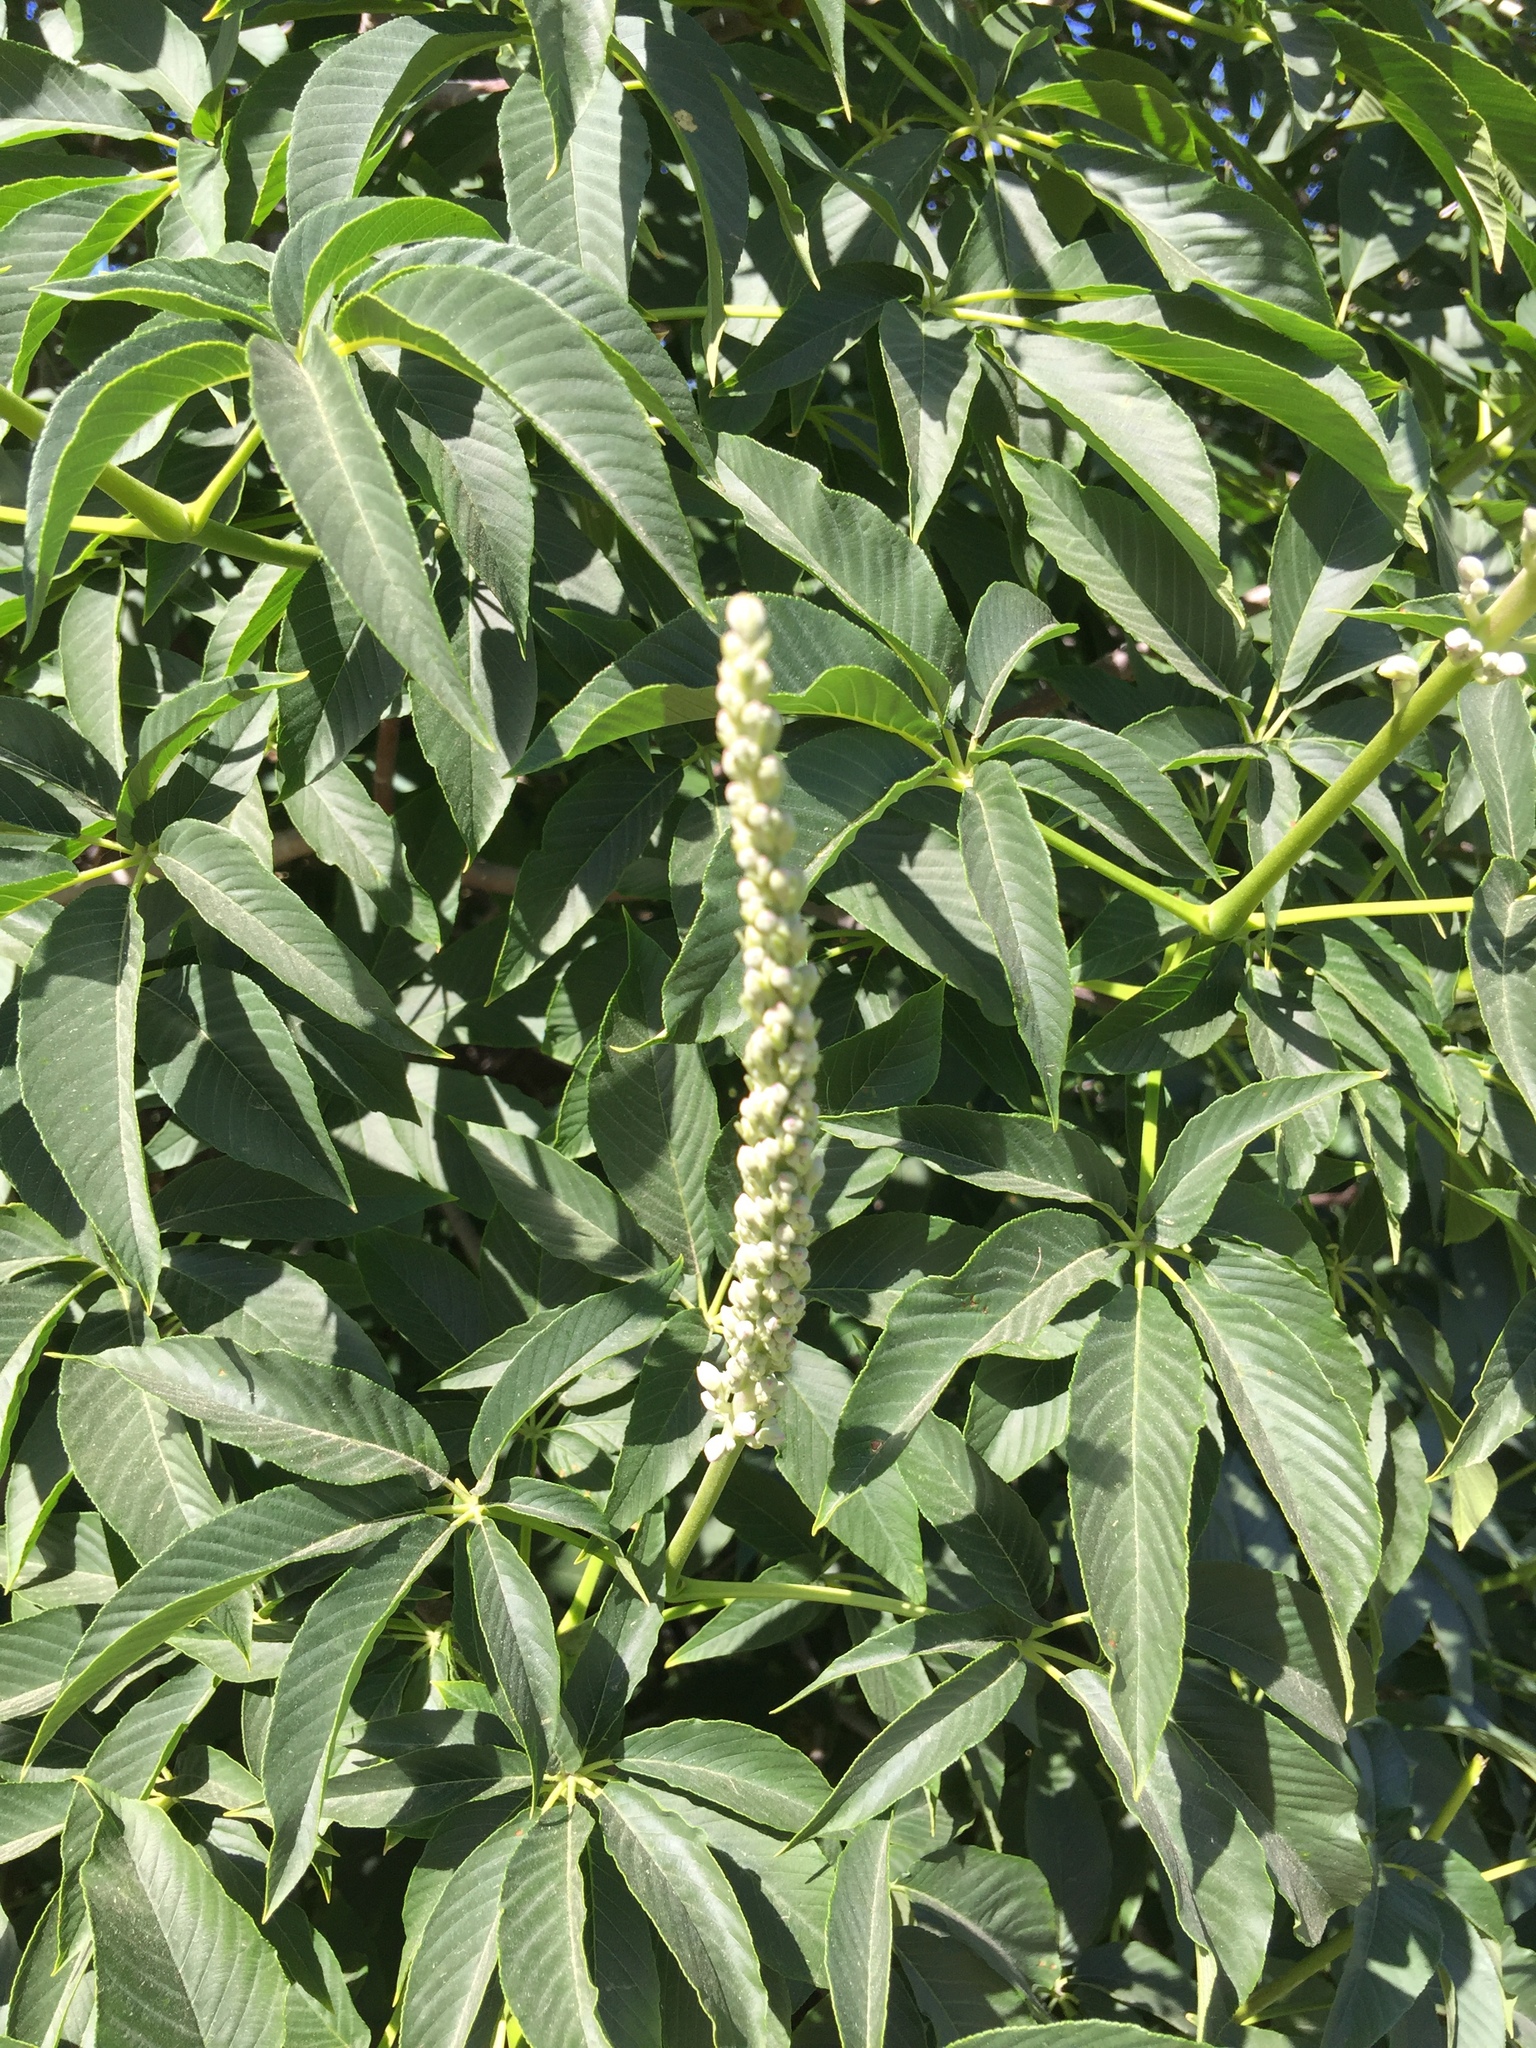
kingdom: Plantae
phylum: Tracheophyta
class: Magnoliopsida
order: Sapindales
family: Sapindaceae
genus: Aesculus
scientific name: Aesculus californica
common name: California buckeye
